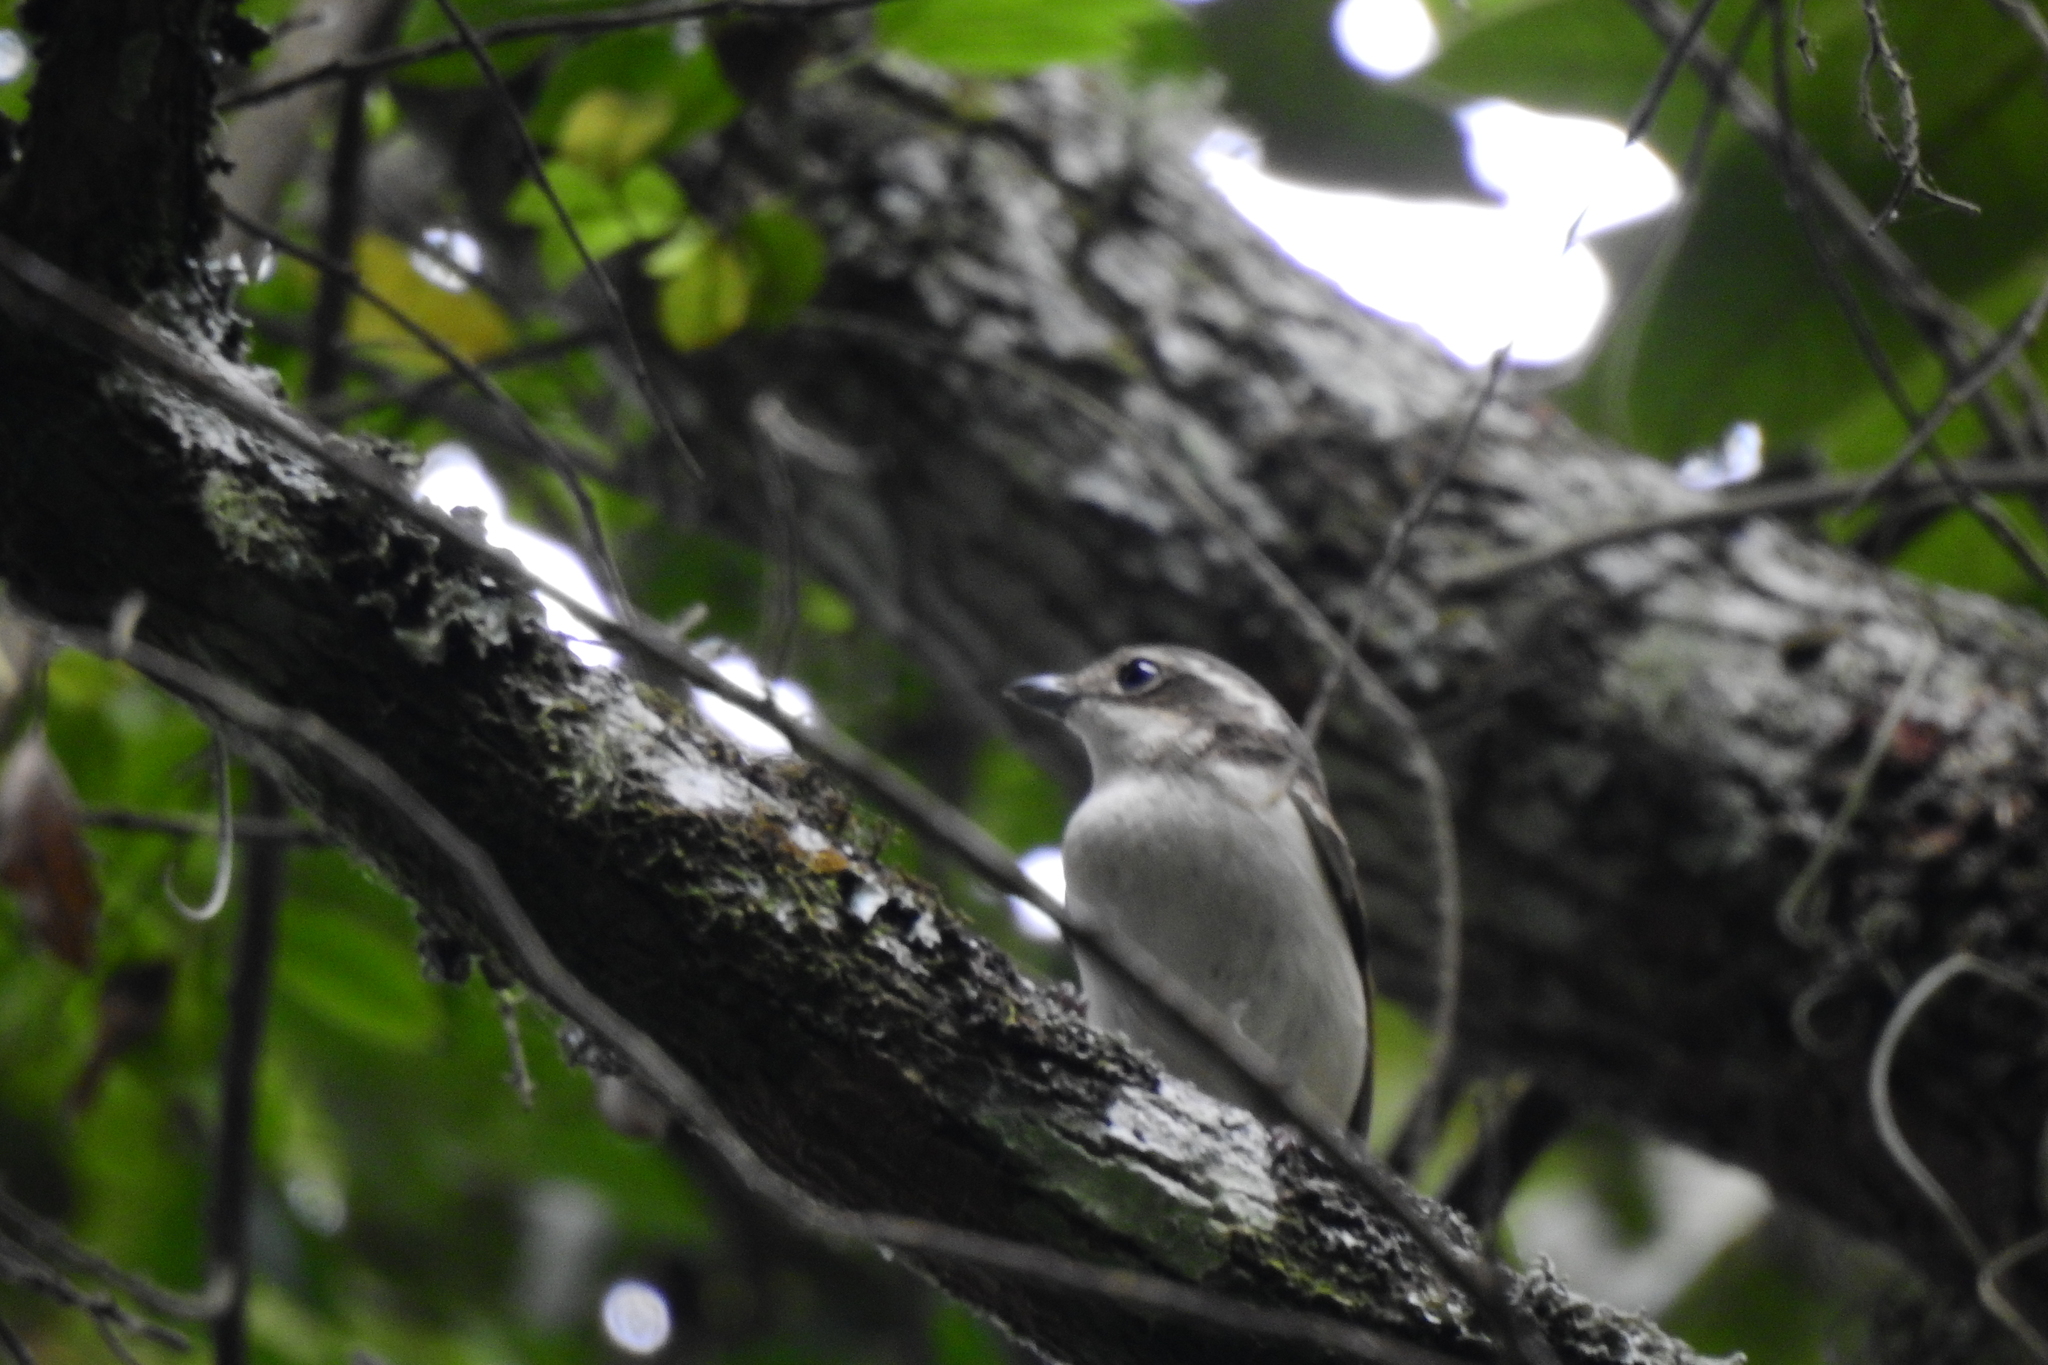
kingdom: Animalia
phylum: Chordata
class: Aves
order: Passeriformes
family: Vireonidae
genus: Pteruthius
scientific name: Pteruthius flaviscapis
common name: Pied shrike-babbler
